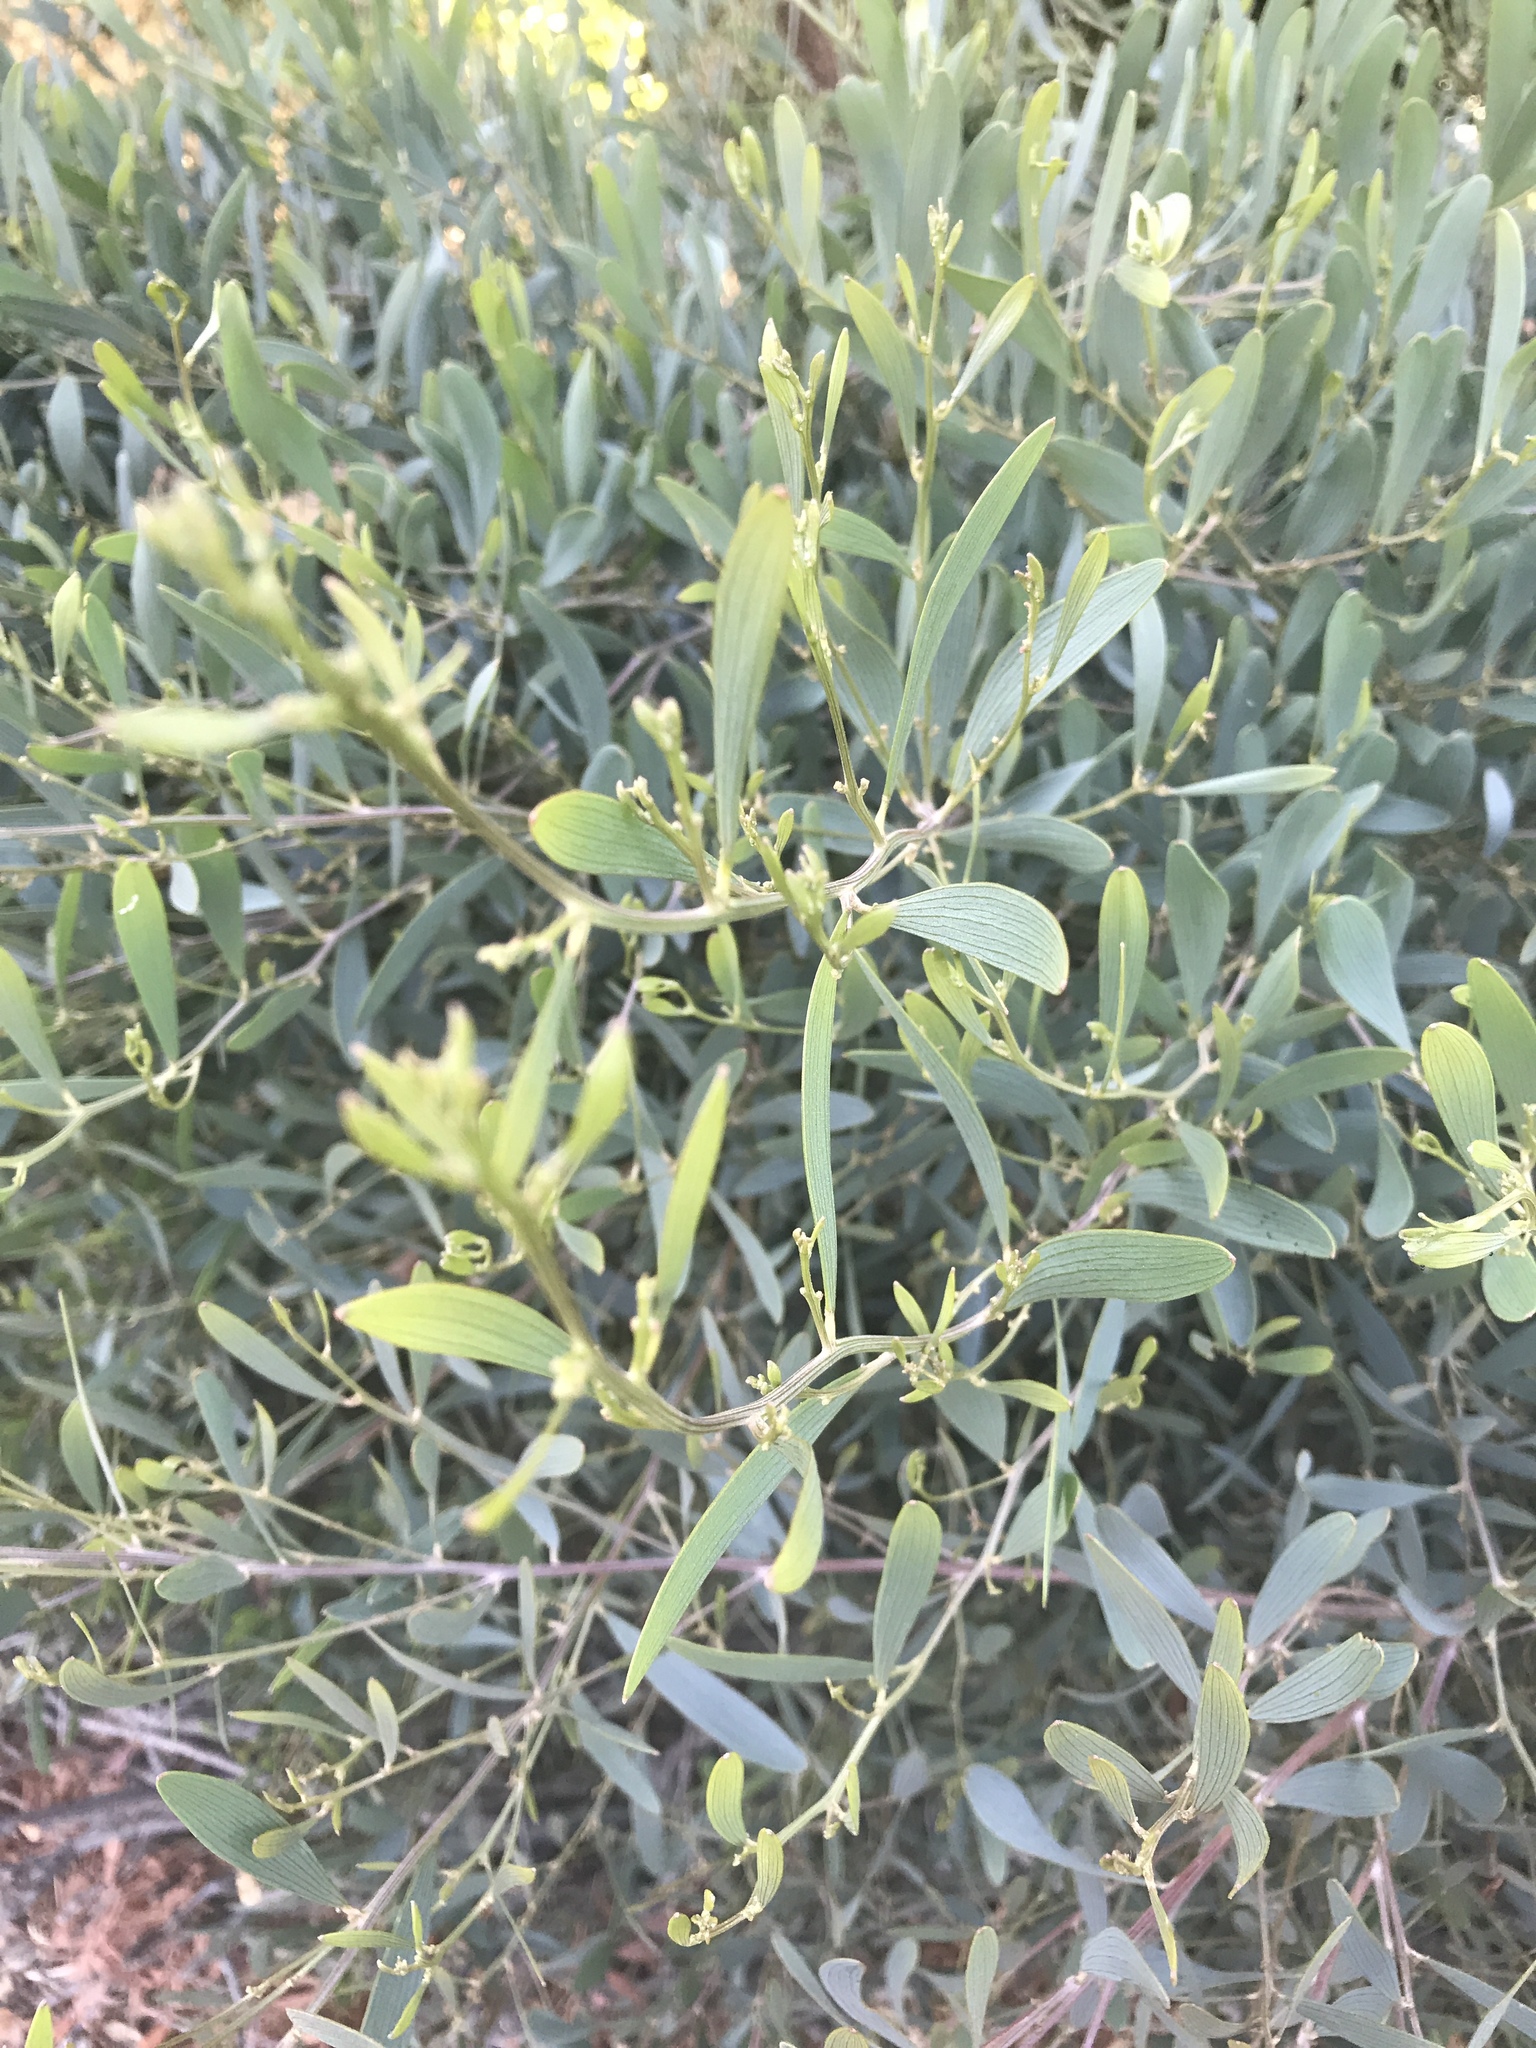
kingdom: Plantae
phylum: Tracheophyta
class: Magnoliopsida
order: Fabales
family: Fabaceae
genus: Acacia
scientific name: Acacia melanoxylon
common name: Blackwood
